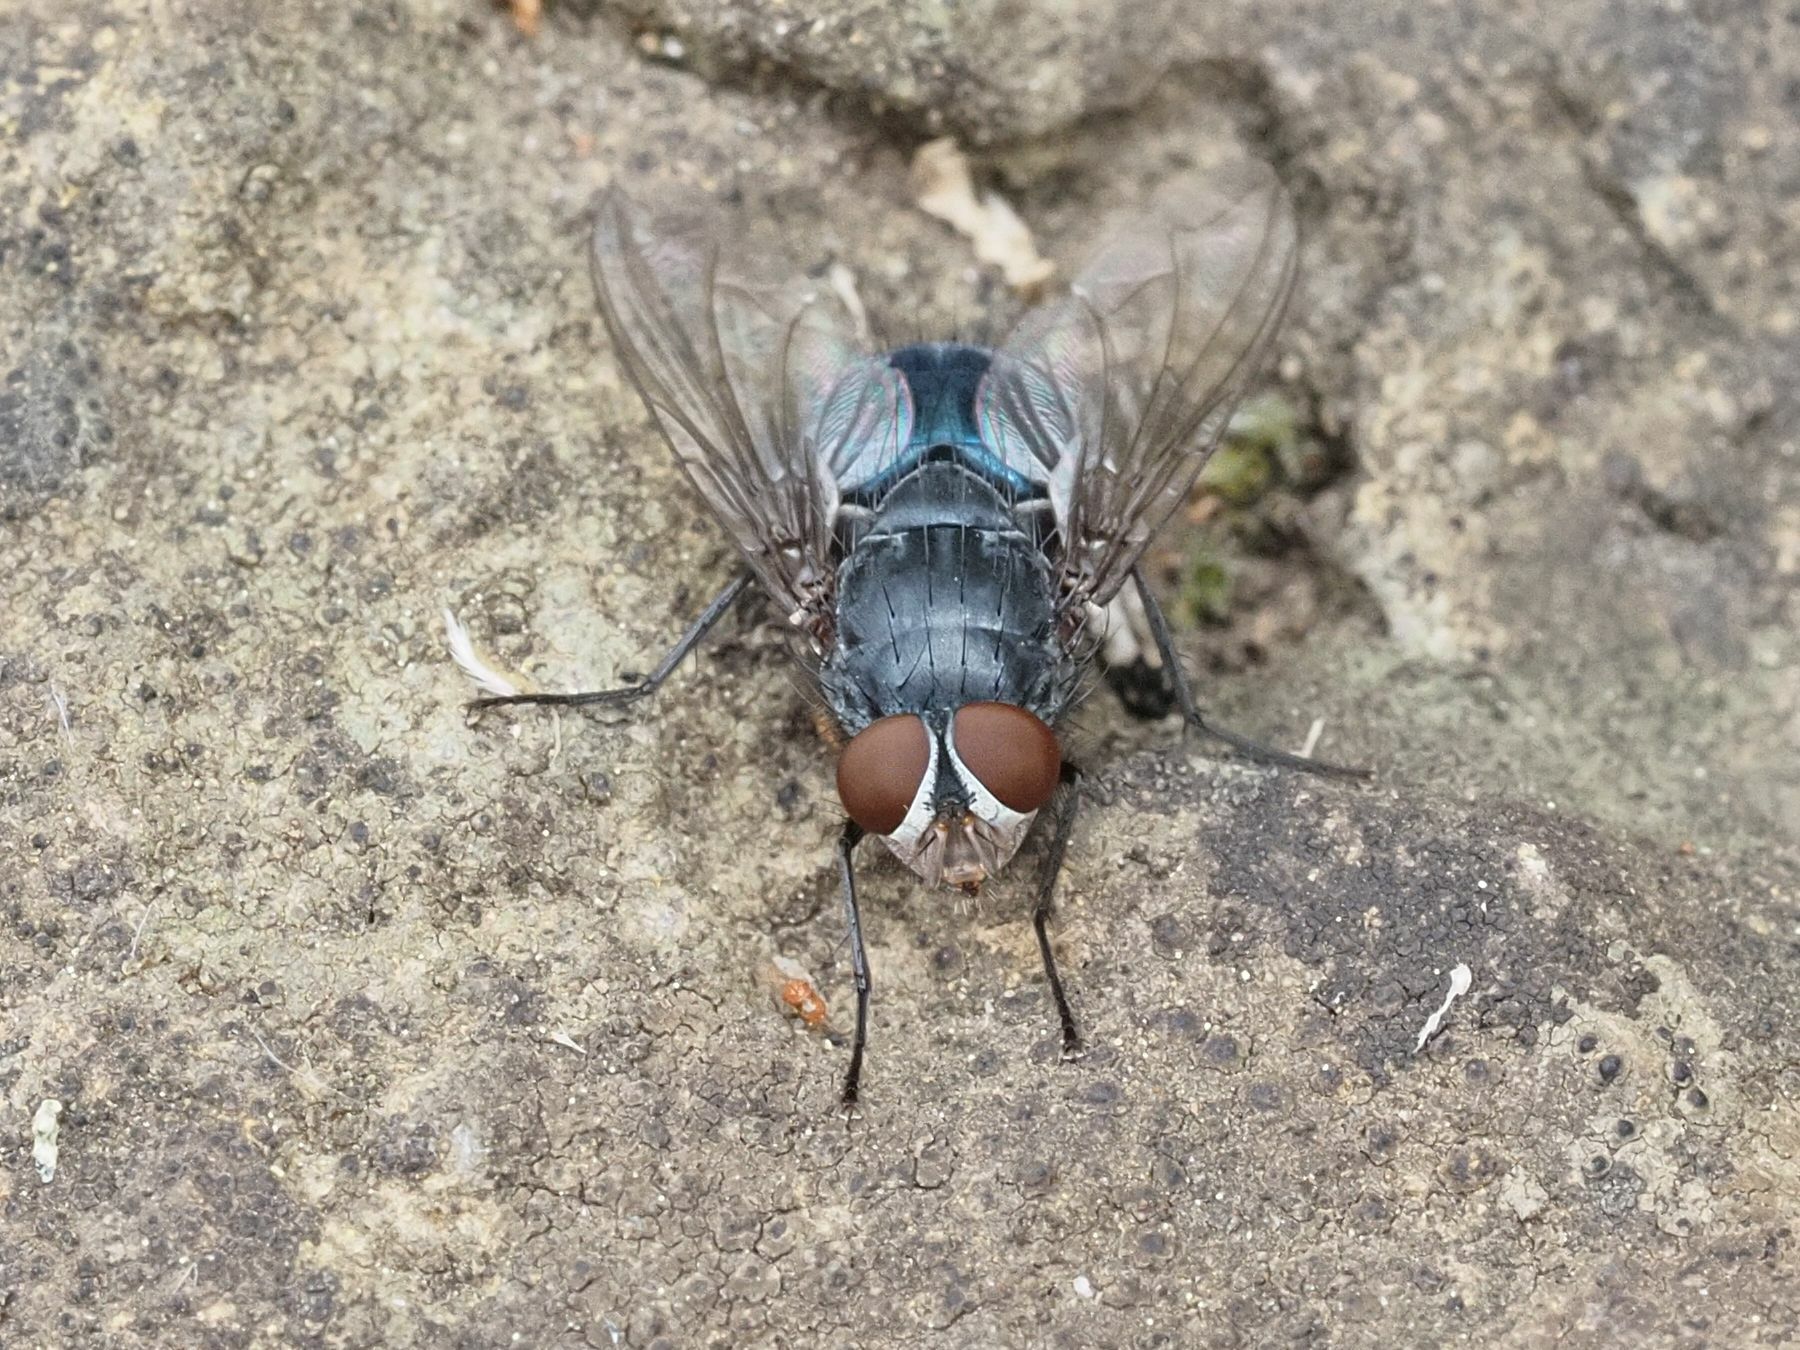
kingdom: Animalia
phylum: Arthropoda
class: Insecta
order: Diptera
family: Calliphoridae
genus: Calliphora
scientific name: Calliphora vicina
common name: Common blow flie
